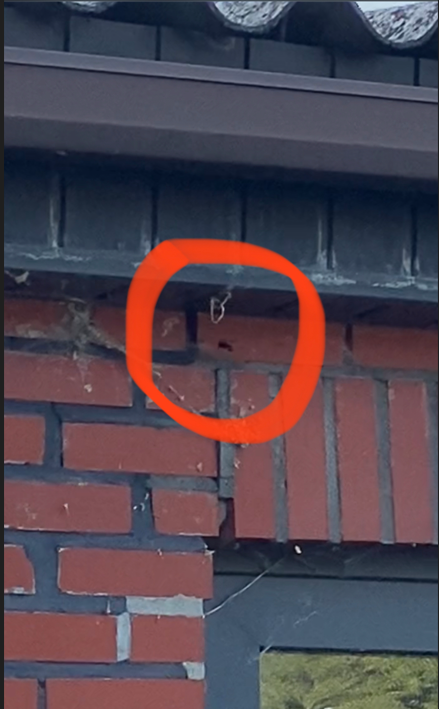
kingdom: Animalia
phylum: Arthropoda
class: Insecta
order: Hymenoptera
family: Vespidae
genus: Vespa
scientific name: Vespa velutina
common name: Asian hornet
